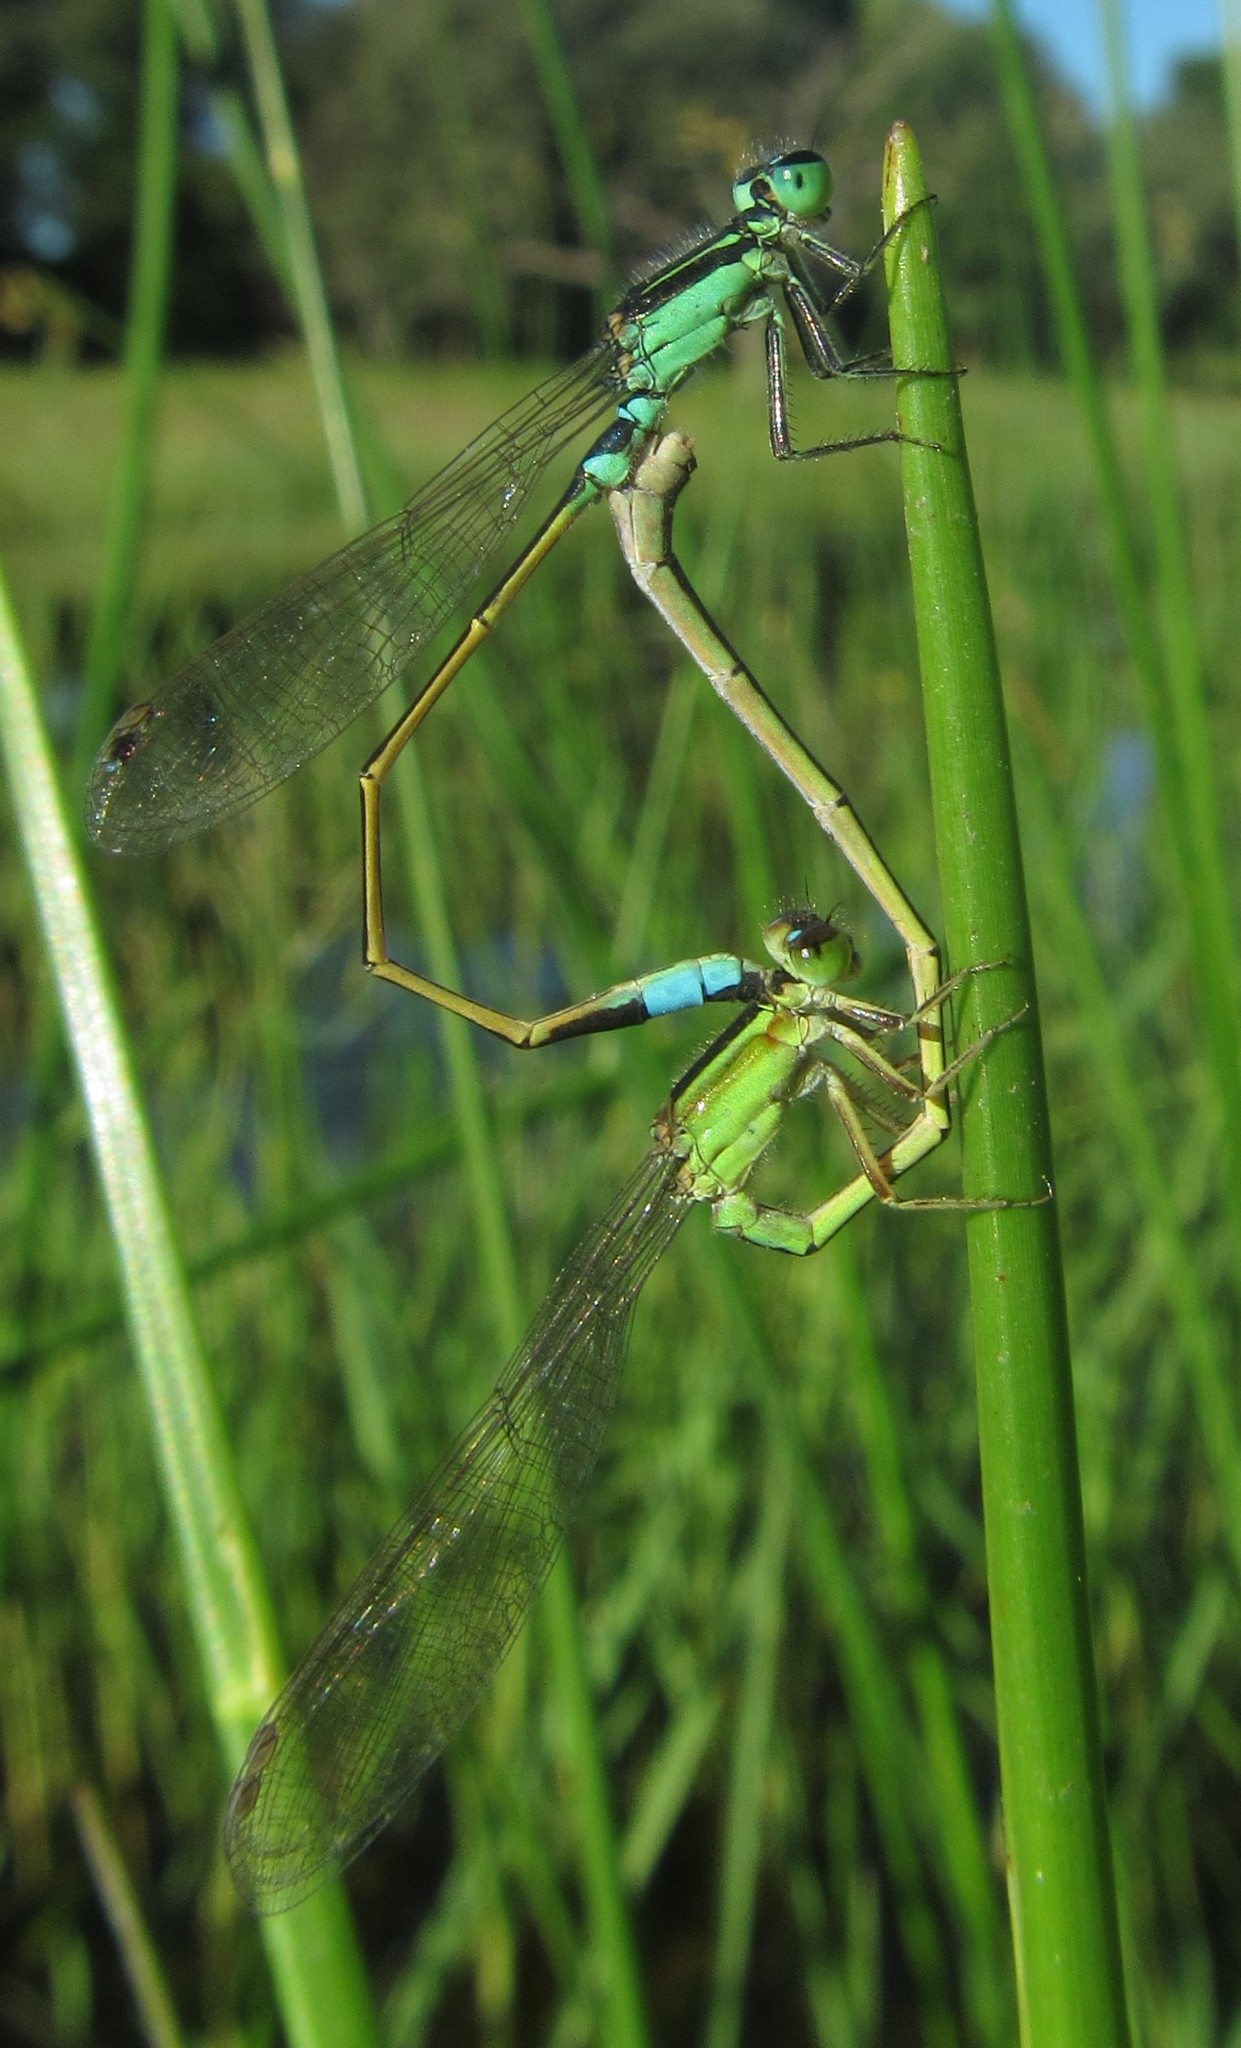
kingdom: Animalia
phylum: Arthropoda
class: Insecta
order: Odonata
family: Coenagrionidae
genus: Ischnura
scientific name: Ischnura senegalensis
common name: Tropical bluetail
